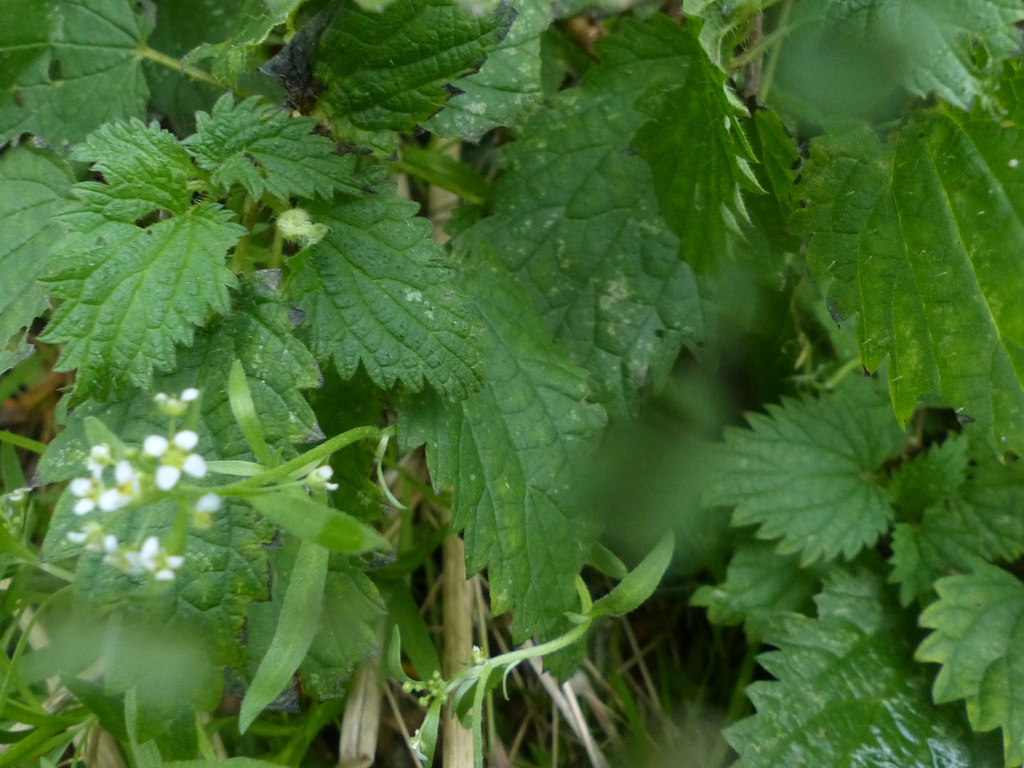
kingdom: Animalia
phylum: Arthropoda
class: Insecta
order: Diptera
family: Cecidomyiidae
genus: Dasineura
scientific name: Dasineura urticae
